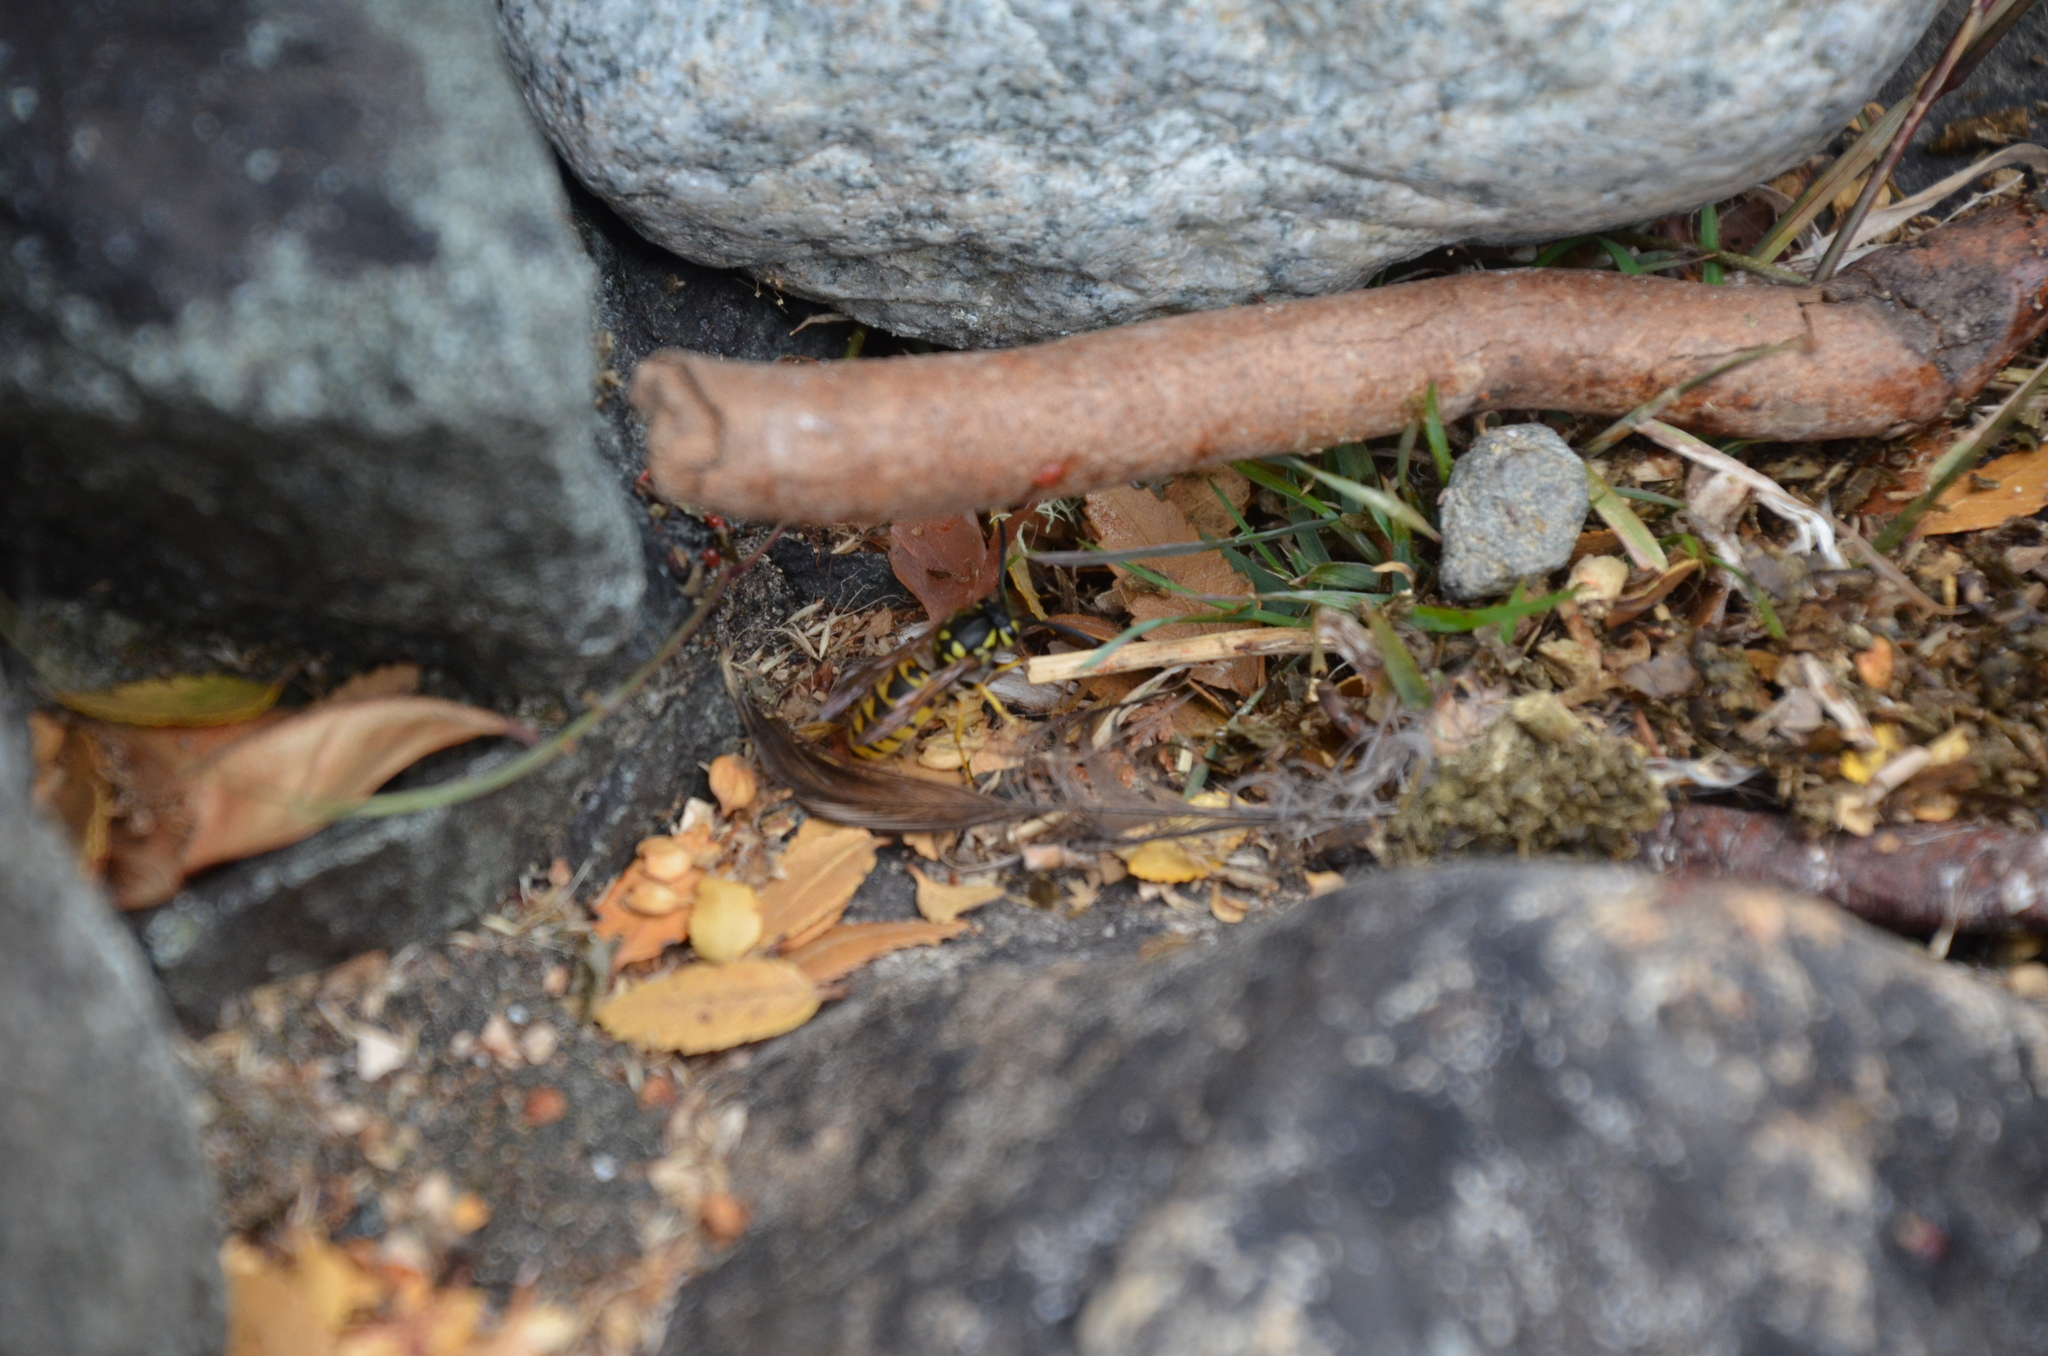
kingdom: Animalia
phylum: Arthropoda
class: Insecta
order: Hymenoptera
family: Vespidae
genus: Vespula
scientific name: Vespula germanica
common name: German wasp
